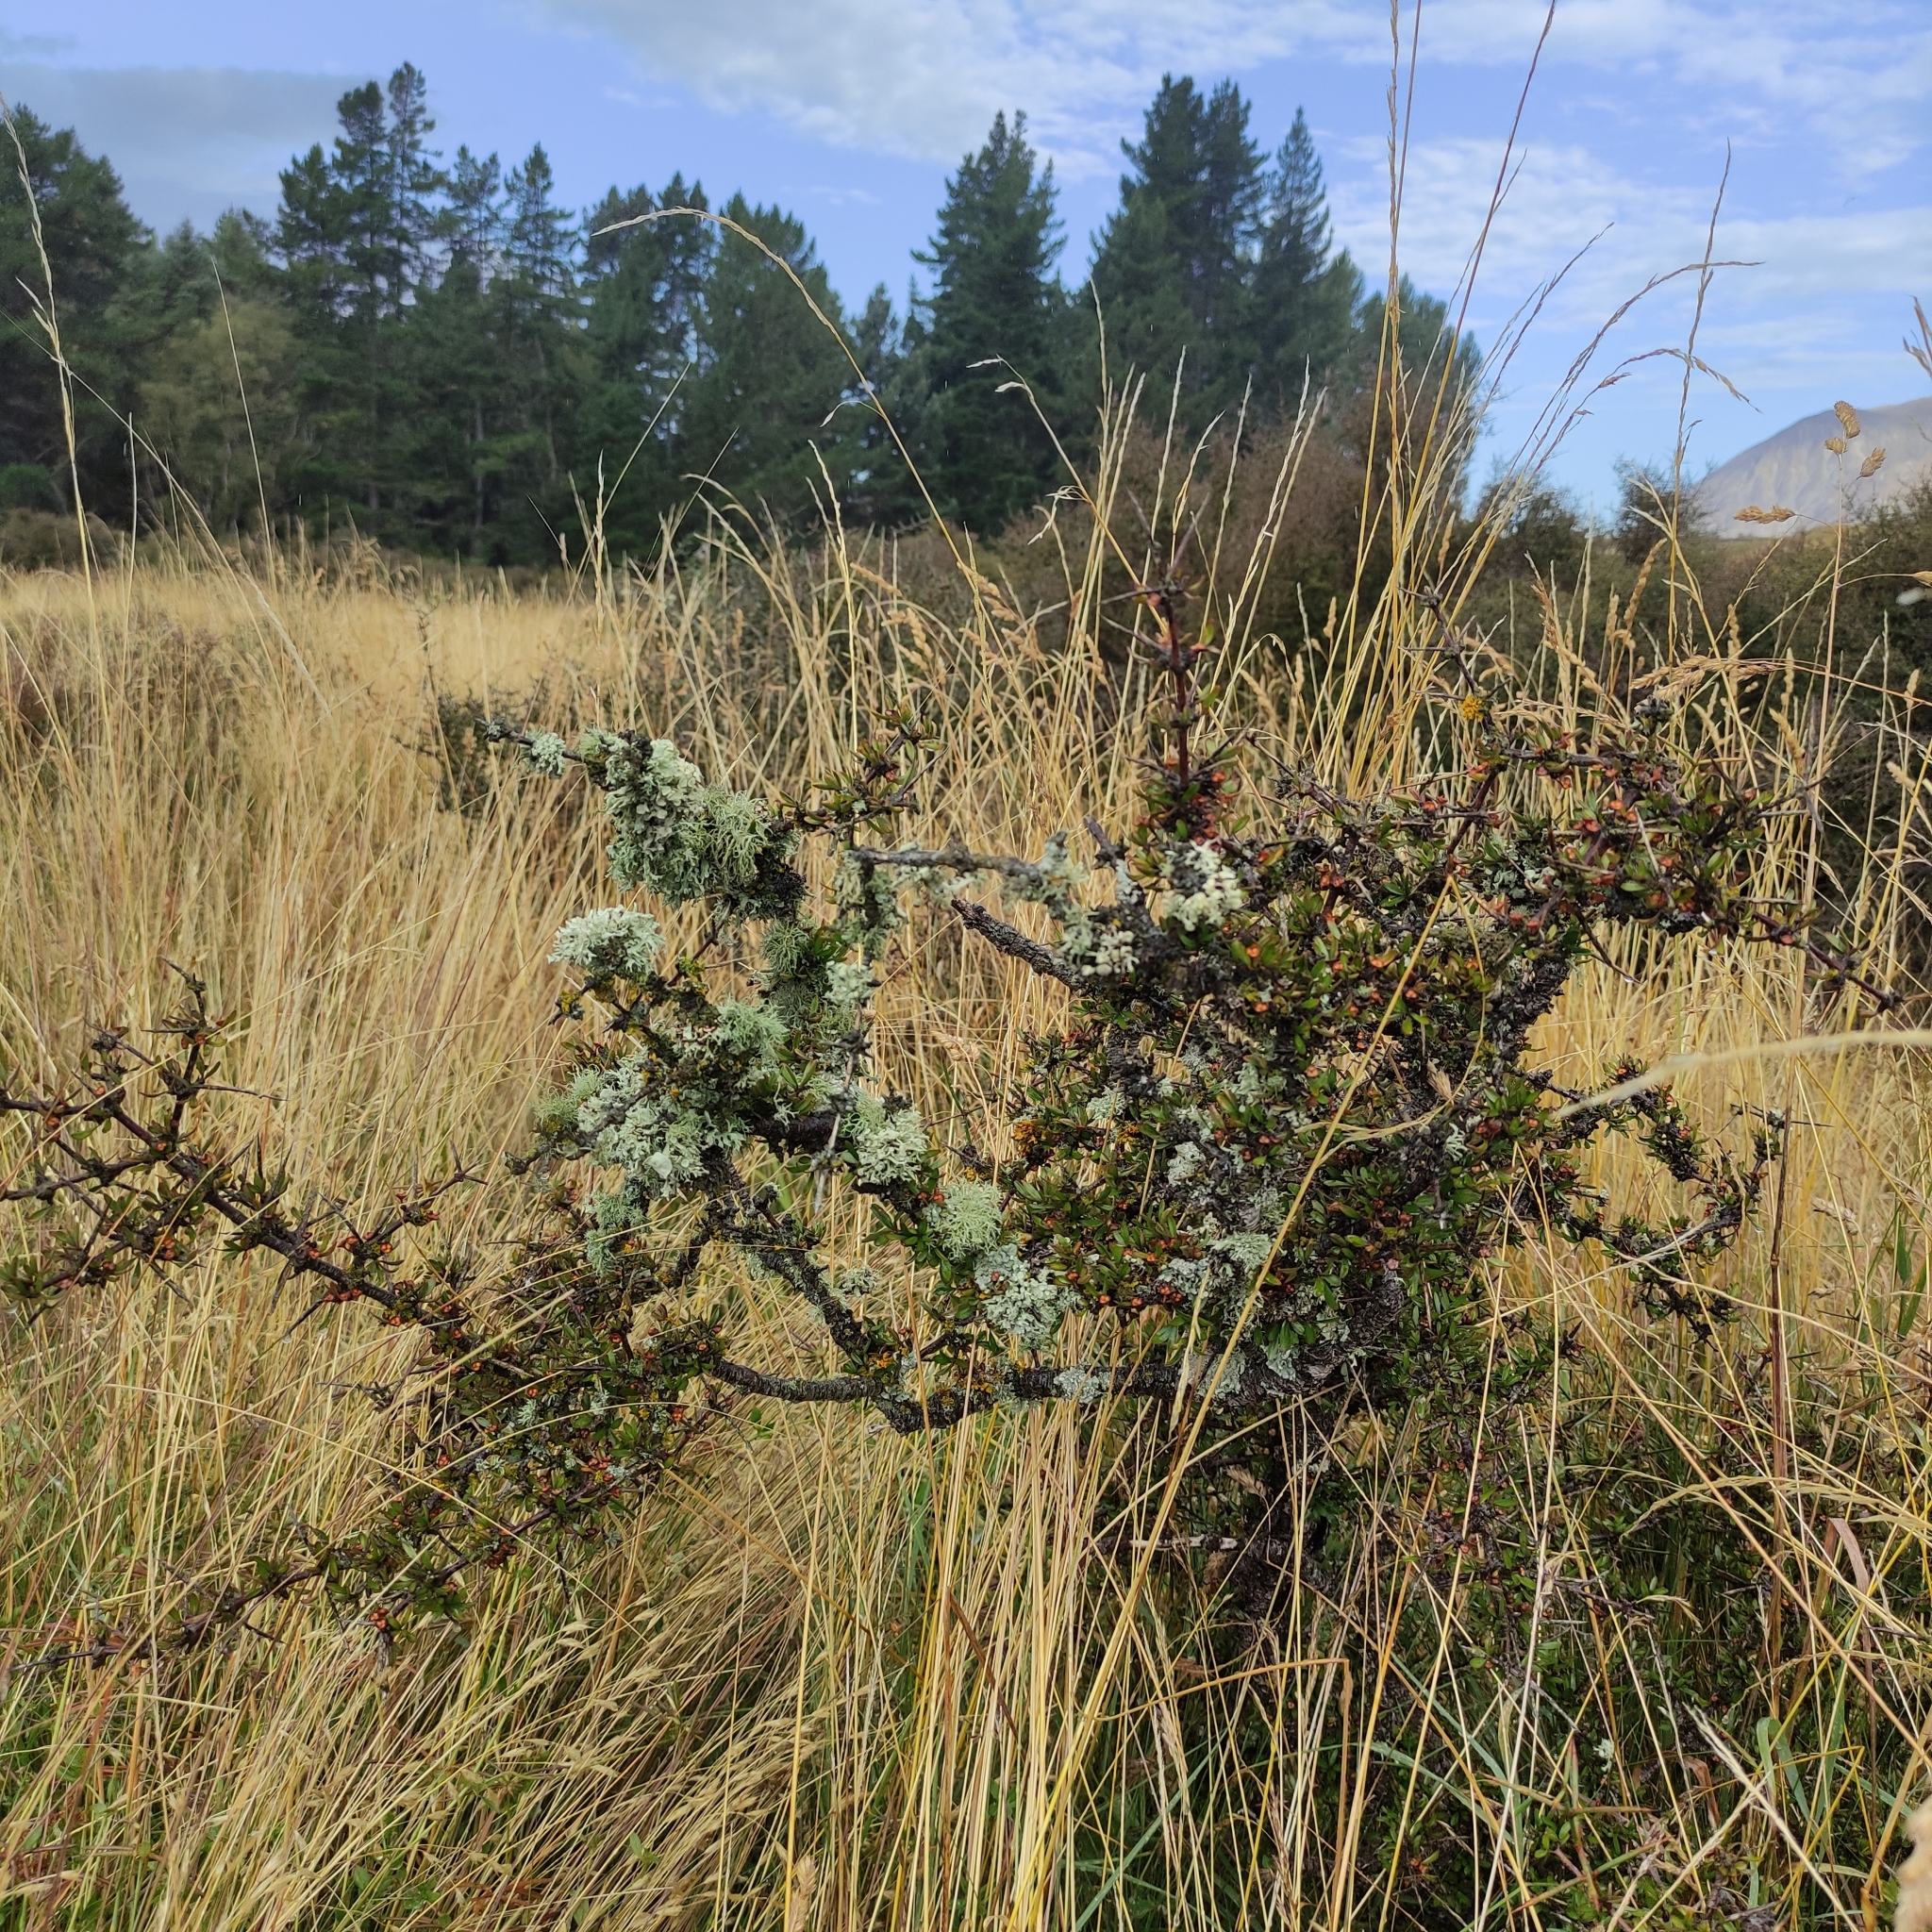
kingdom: Plantae
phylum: Tracheophyta
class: Magnoliopsida
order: Rosales
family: Rhamnaceae
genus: Discaria
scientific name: Discaria toumatou
